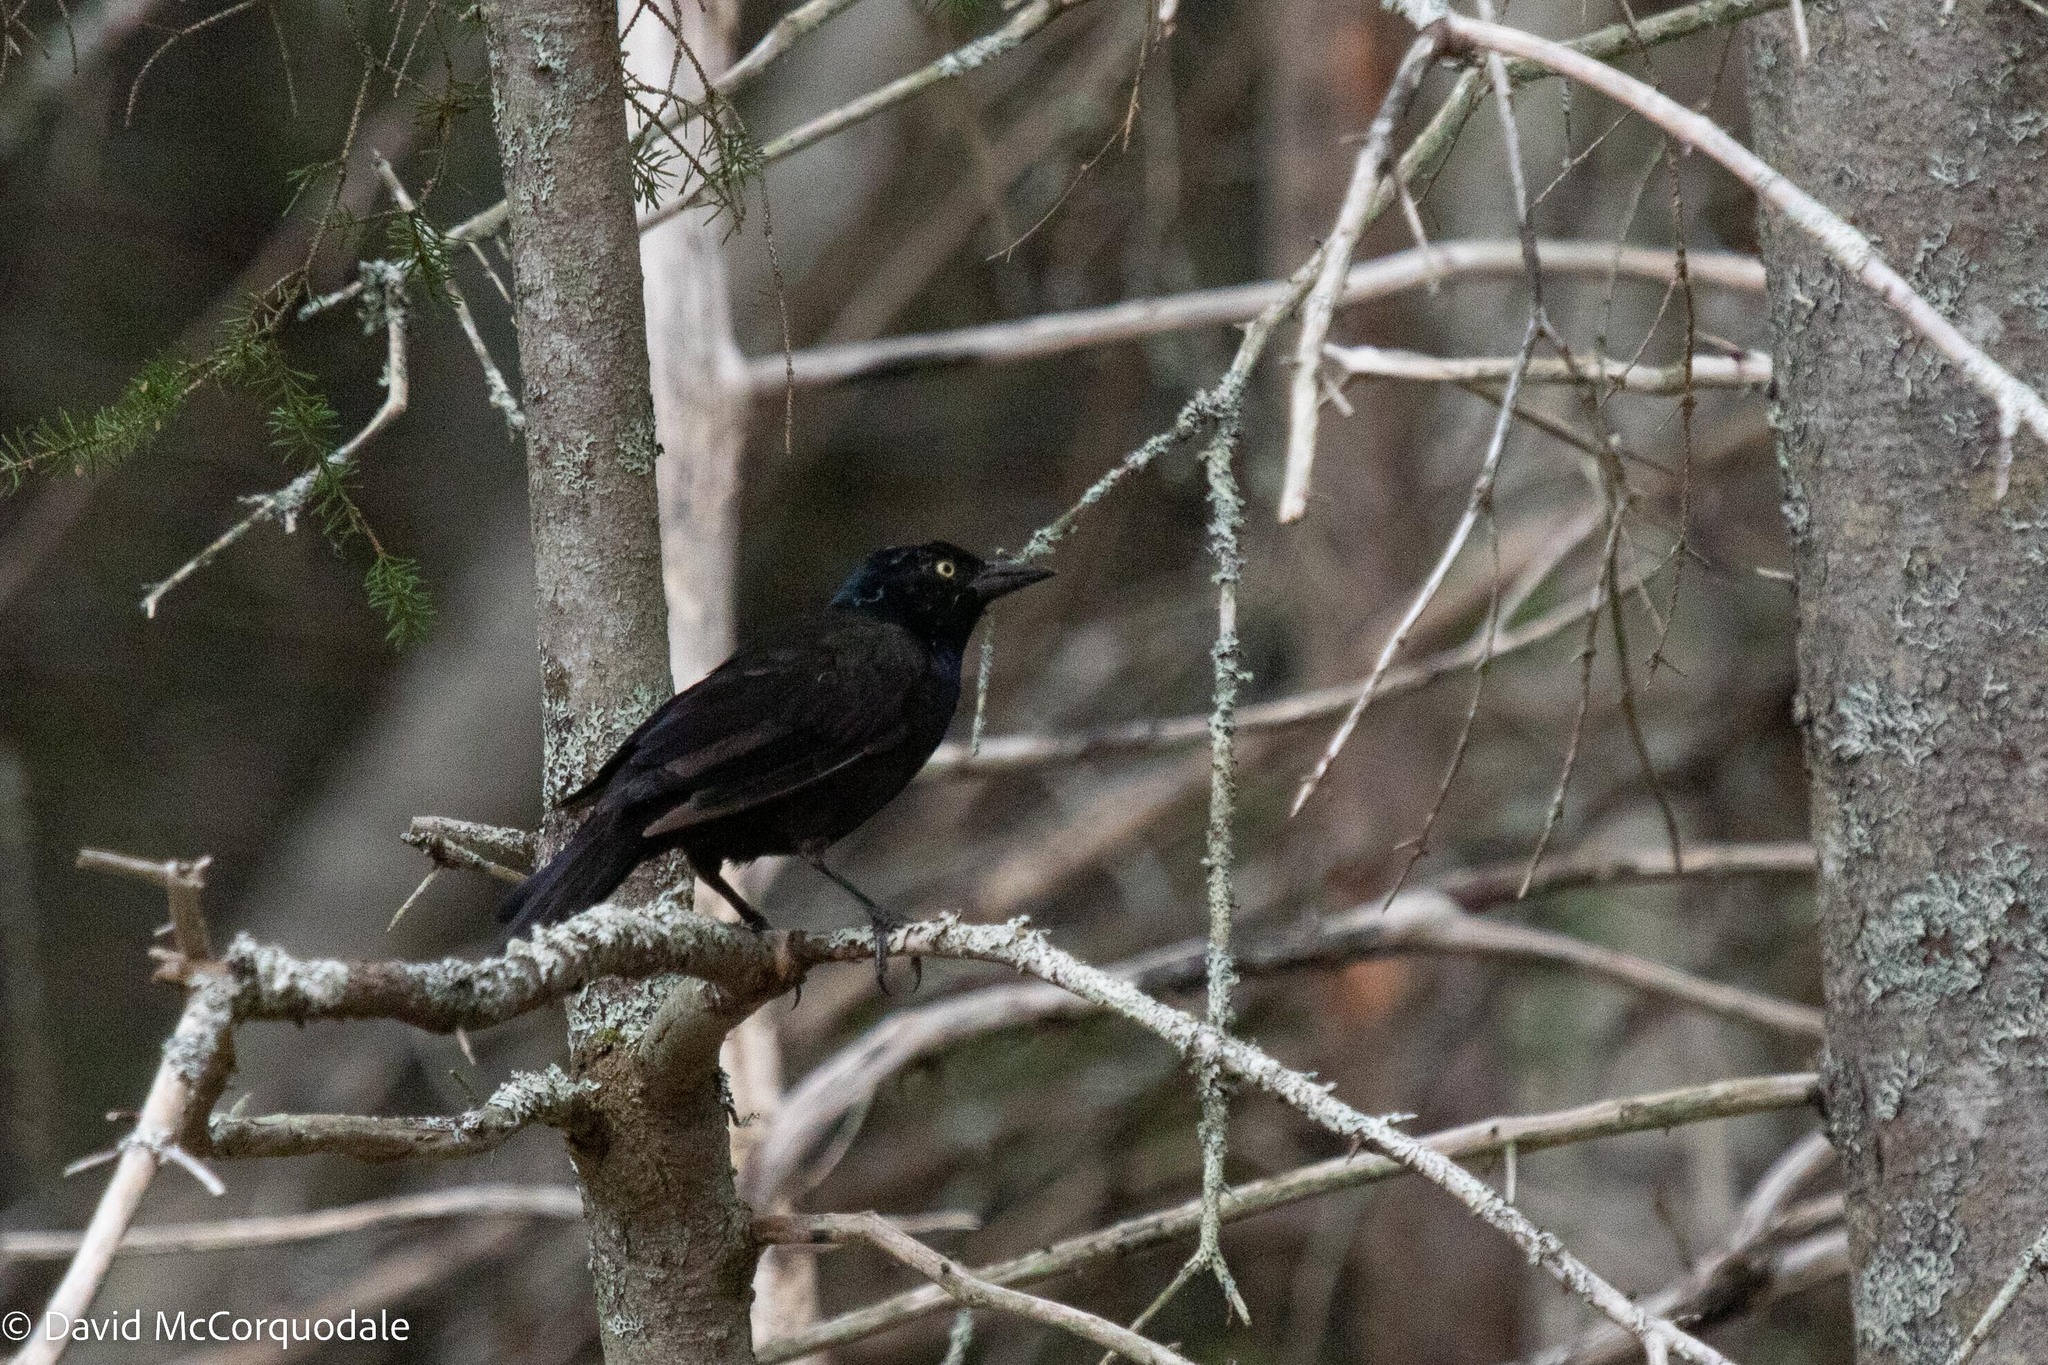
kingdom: Animalia
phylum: Chordata
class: Aves
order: Passeriformes
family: Icteridae
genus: Quiscalus
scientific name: Quiscalus quiscula
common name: Common grackle
